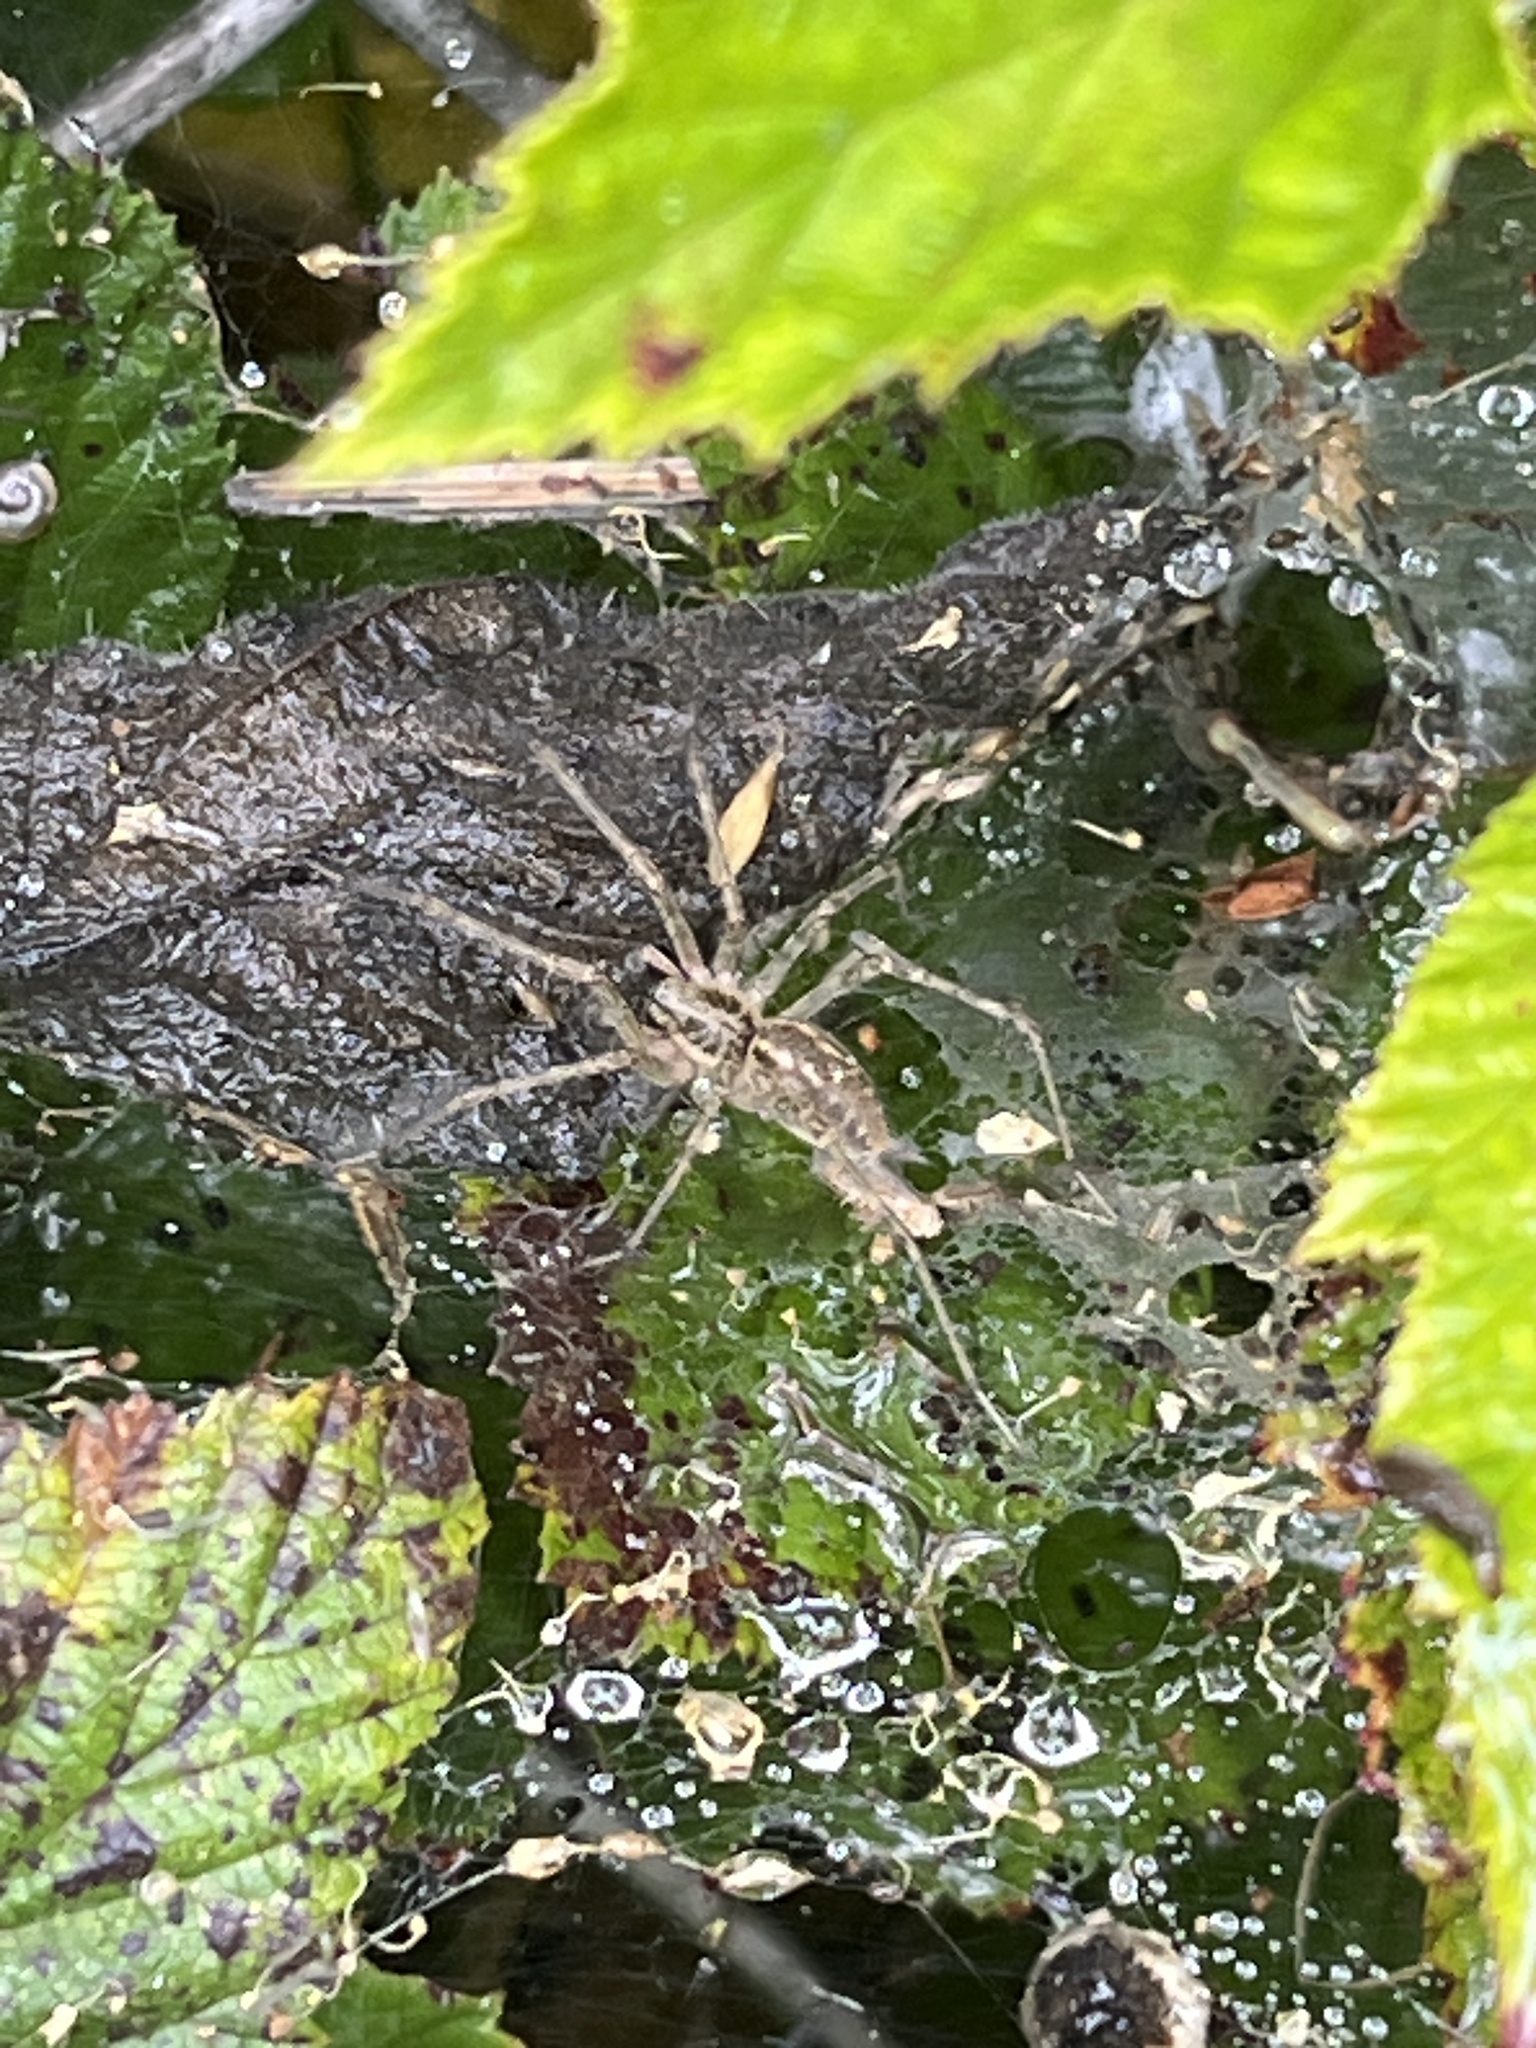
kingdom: Animalia
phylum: Arthropoda
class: Arachnida
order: Araneae
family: Agelenidae
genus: Allagelena
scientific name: Allagelena gracilens
